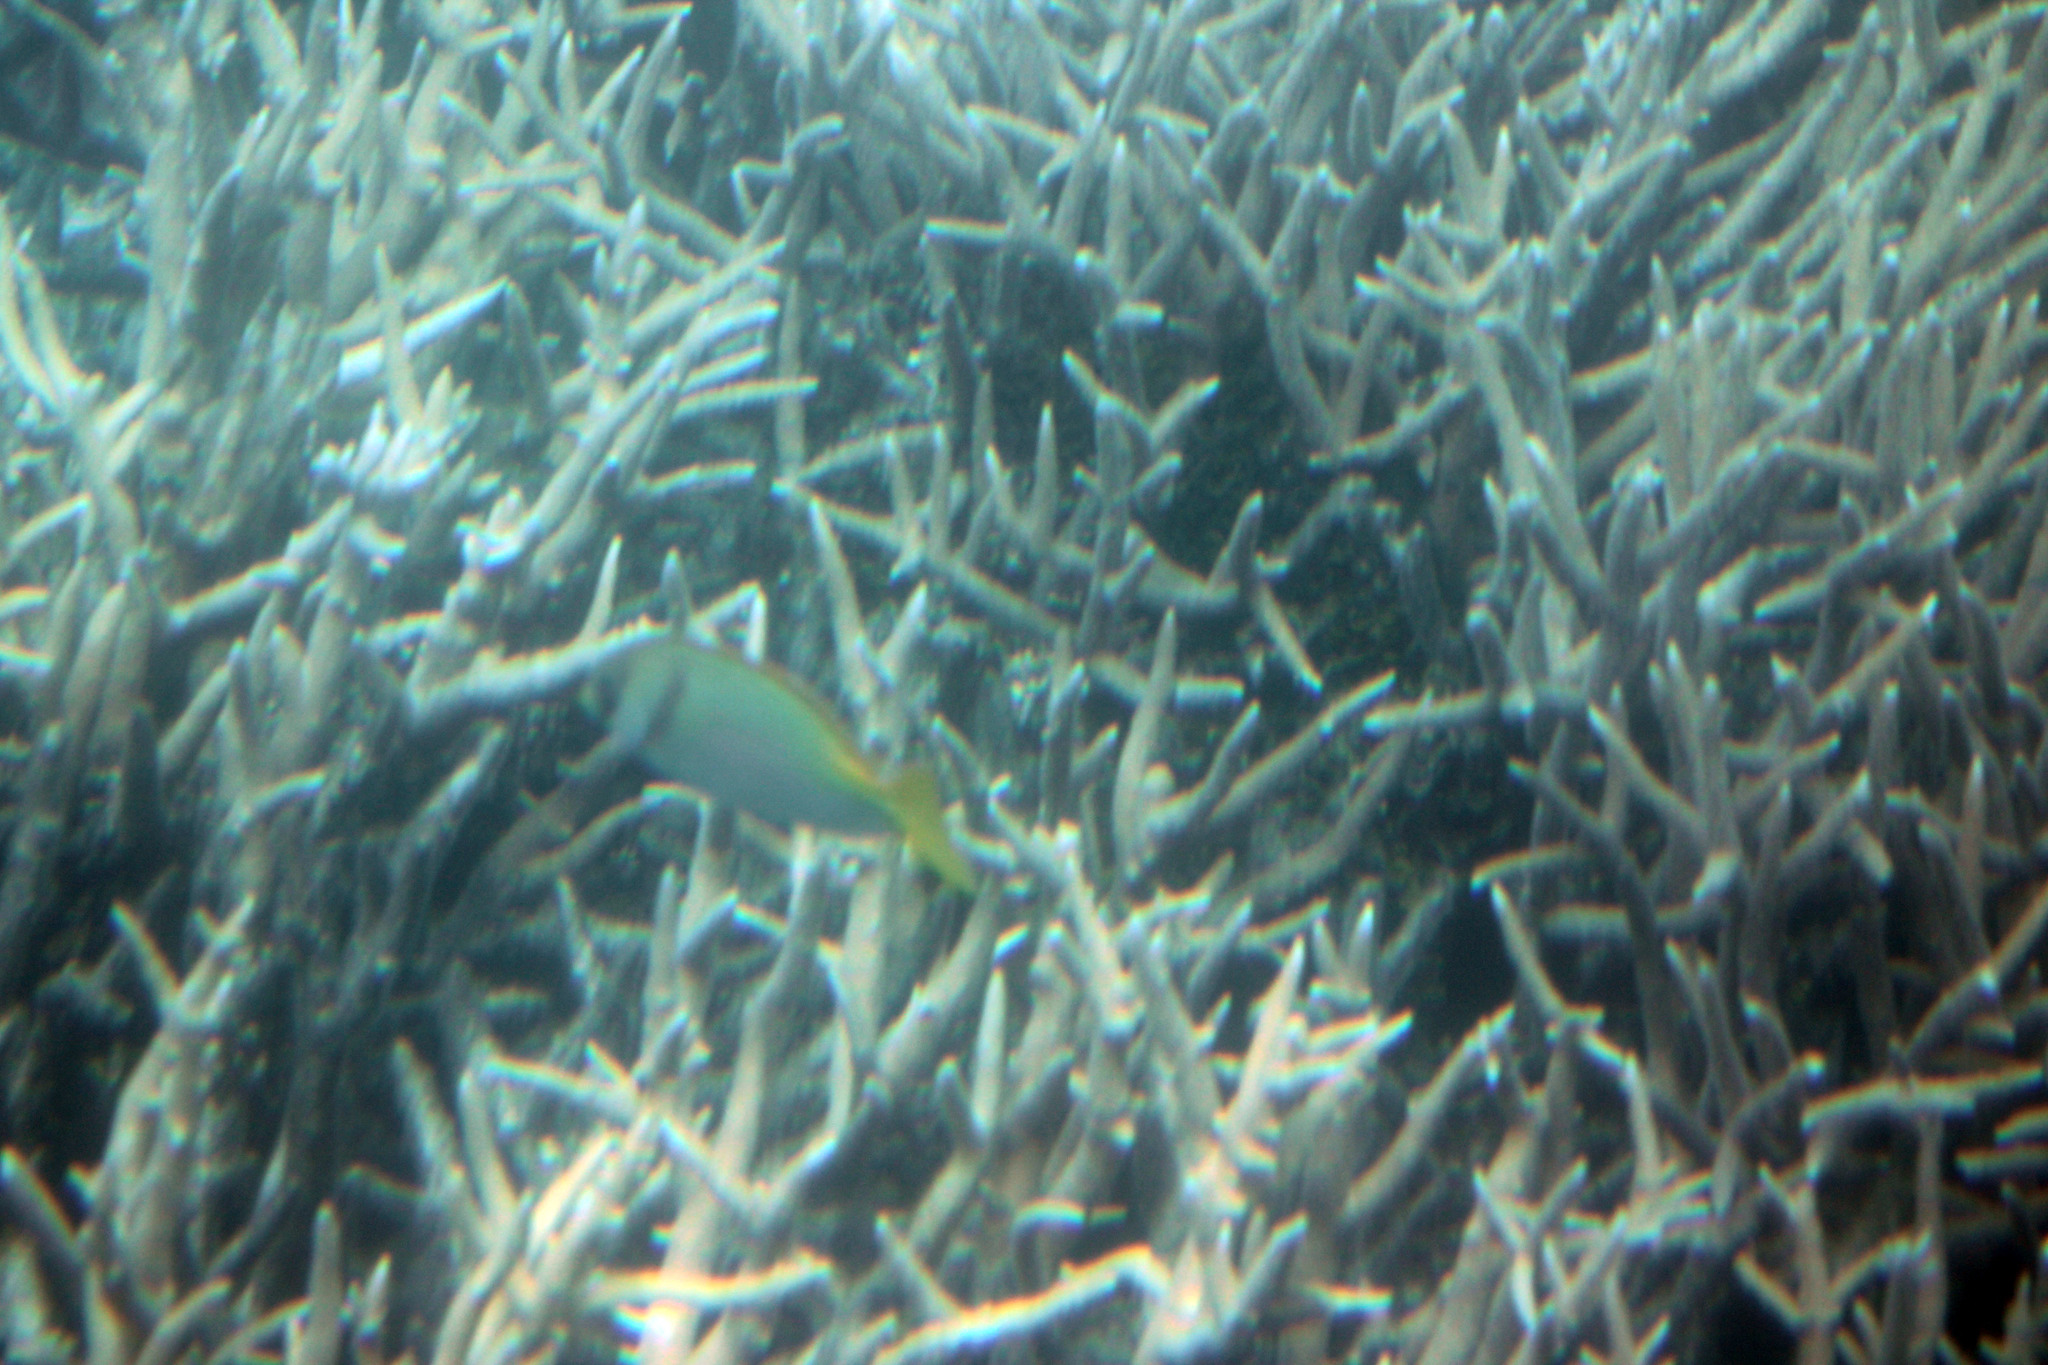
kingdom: Animalia
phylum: Chordata
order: Perciformes
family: Siganidae
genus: Siganus
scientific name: Siganus doliatus
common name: Barred spinefoot
